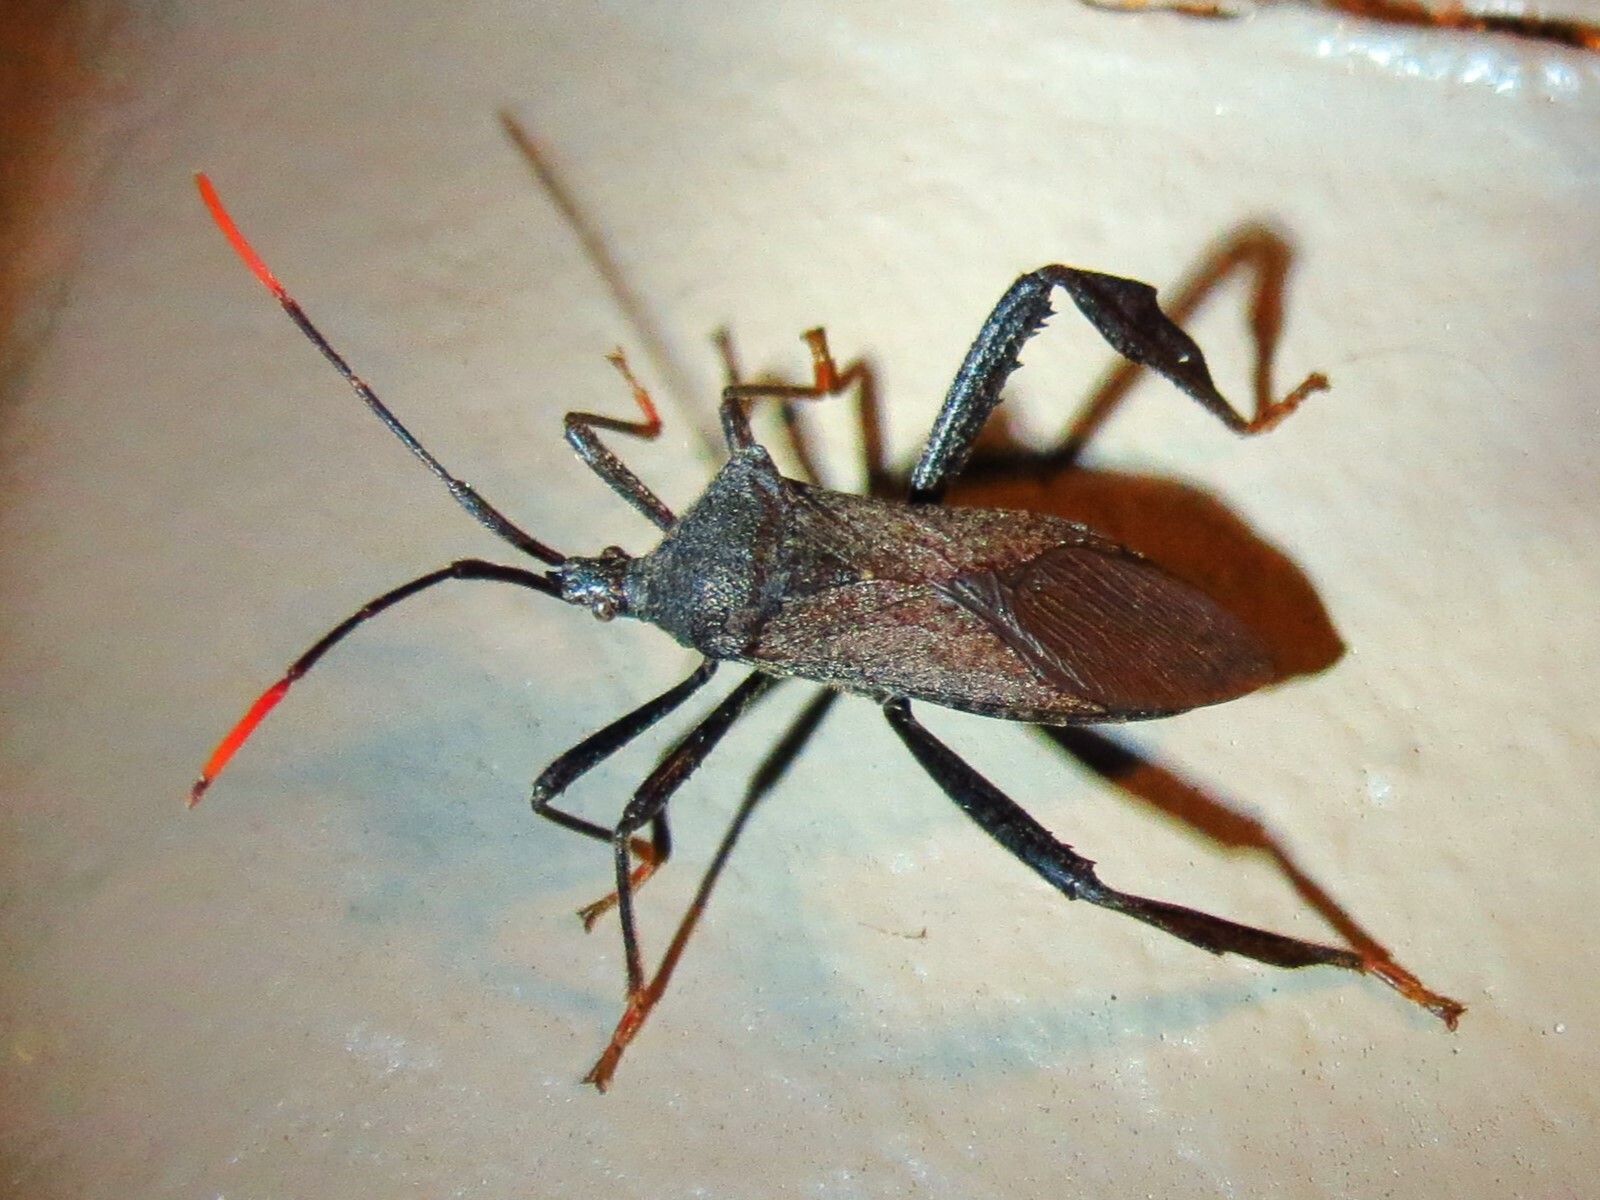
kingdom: Animalia
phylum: Arthropoda
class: Insecta
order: Hemiptera
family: Coreidae
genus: Acanthocephala
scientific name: Acanthocephala terminalis
